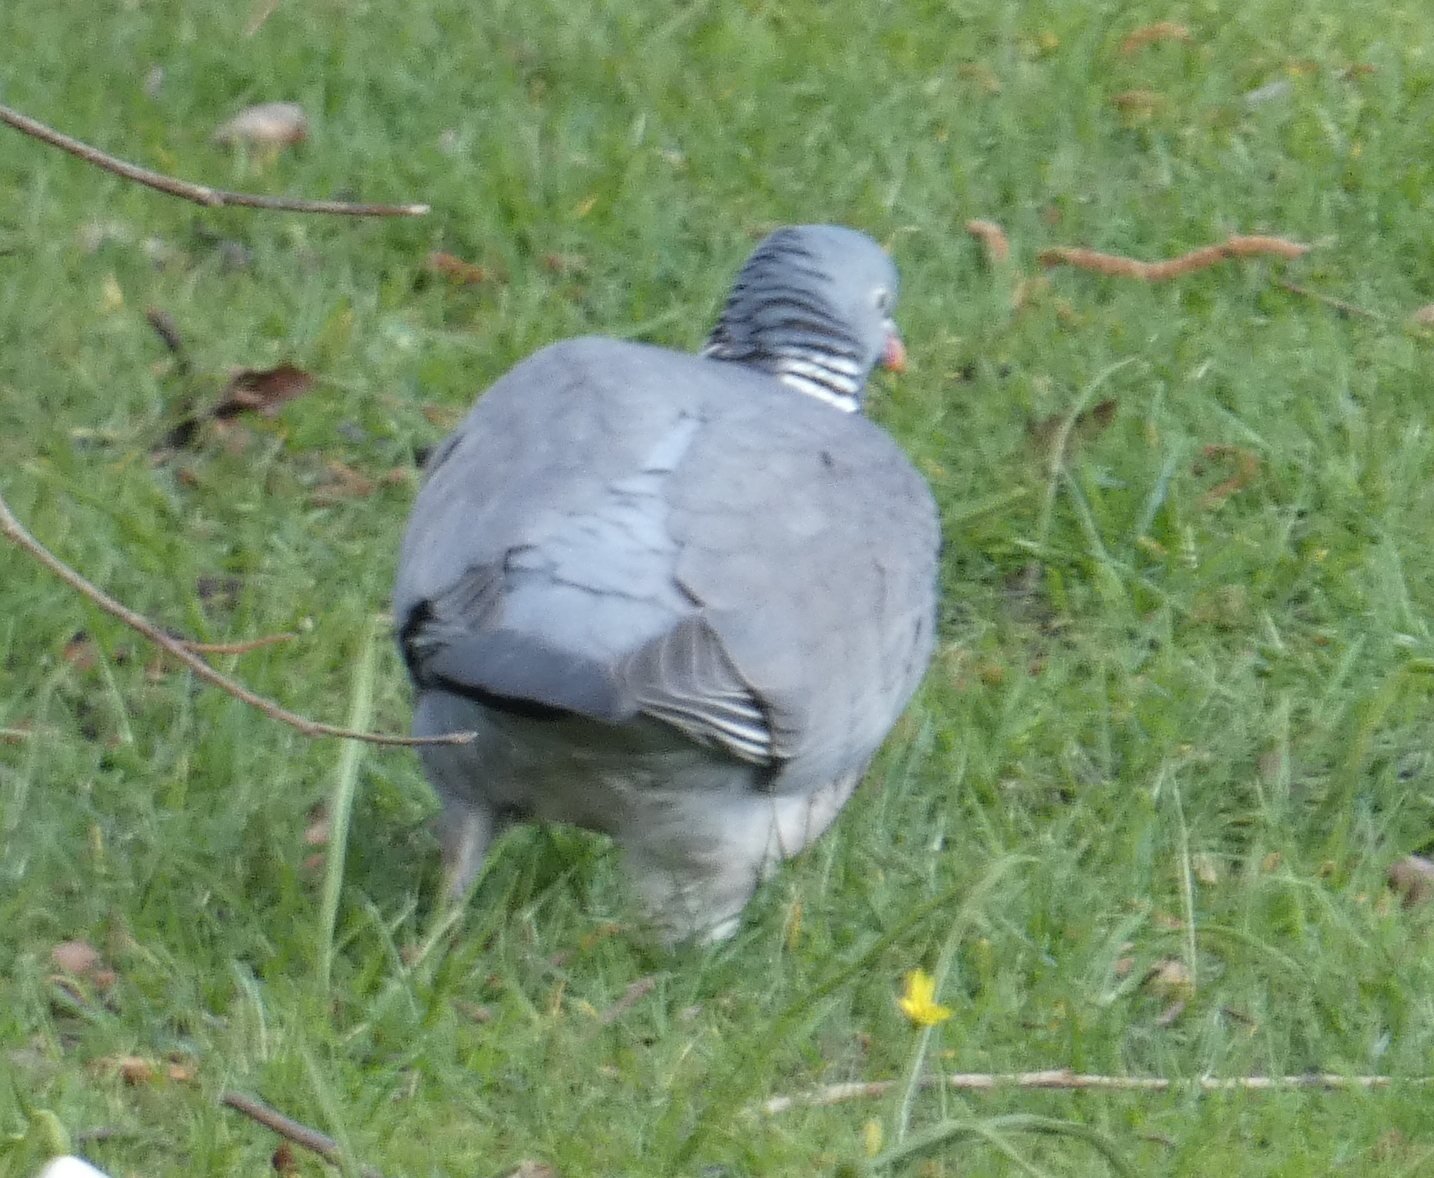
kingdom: Animalia
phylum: Chordata
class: Aves
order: Columbiformes
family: Columbidae
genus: Columba
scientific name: Columba palumbus
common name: Common wood pigeon
